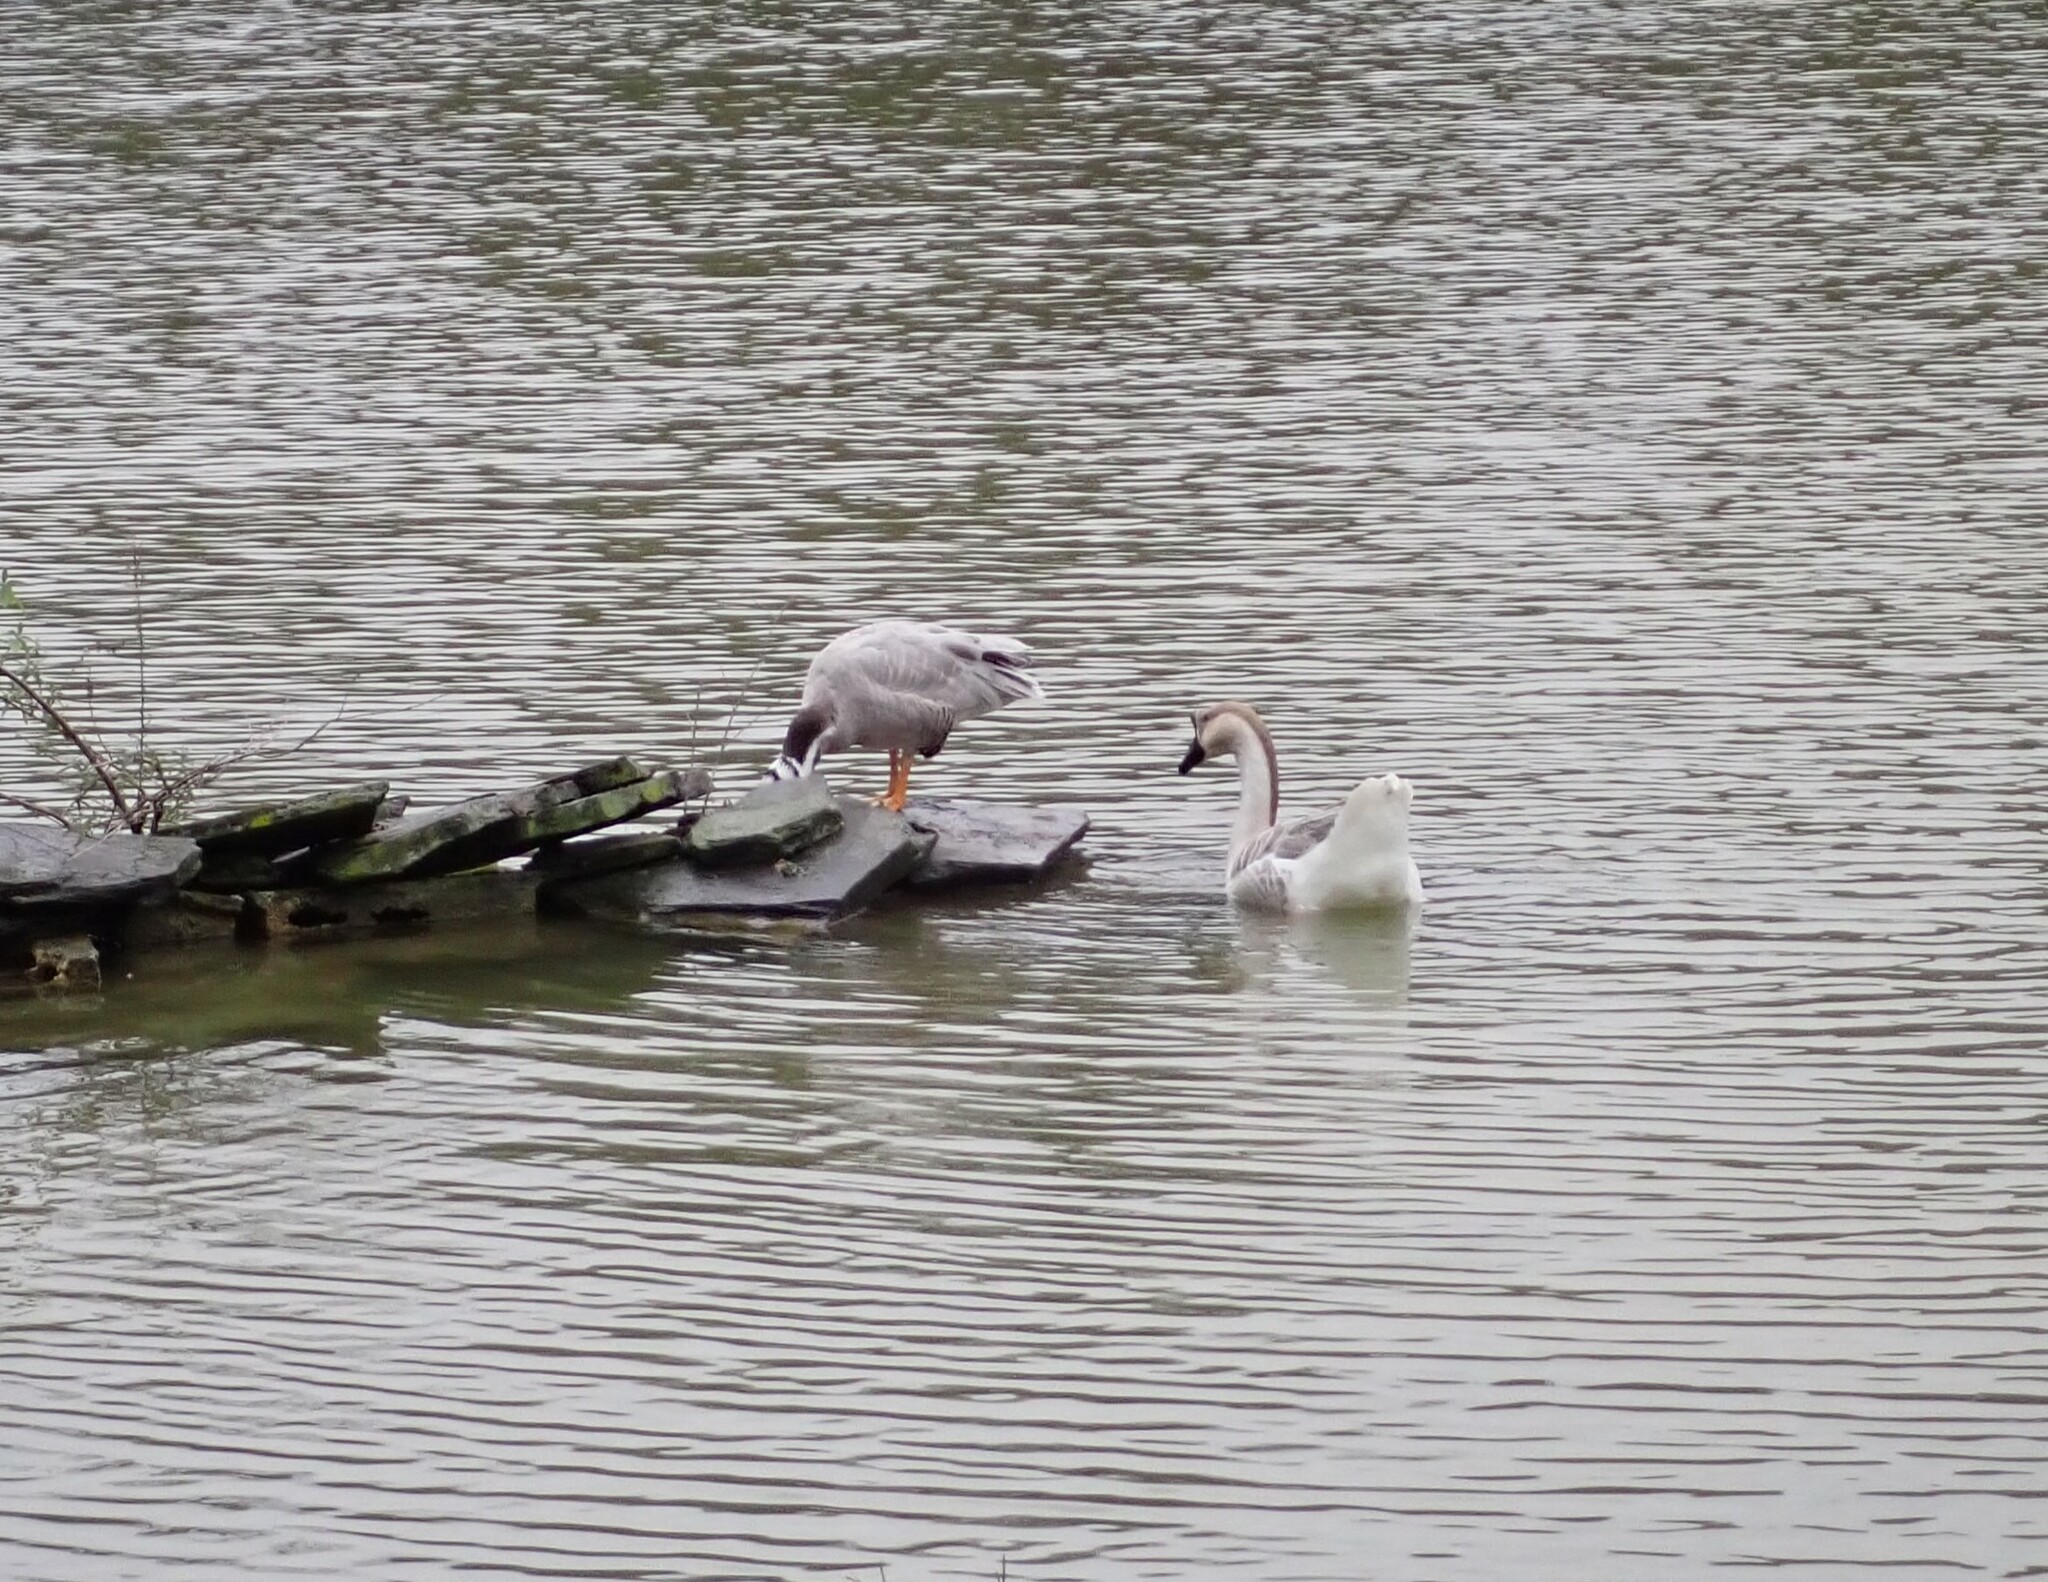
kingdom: Animalia
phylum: Chordata
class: Aves
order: Anseriformes
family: Anatidae
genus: Anser
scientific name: Anser cygnoides
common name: Swan goose
